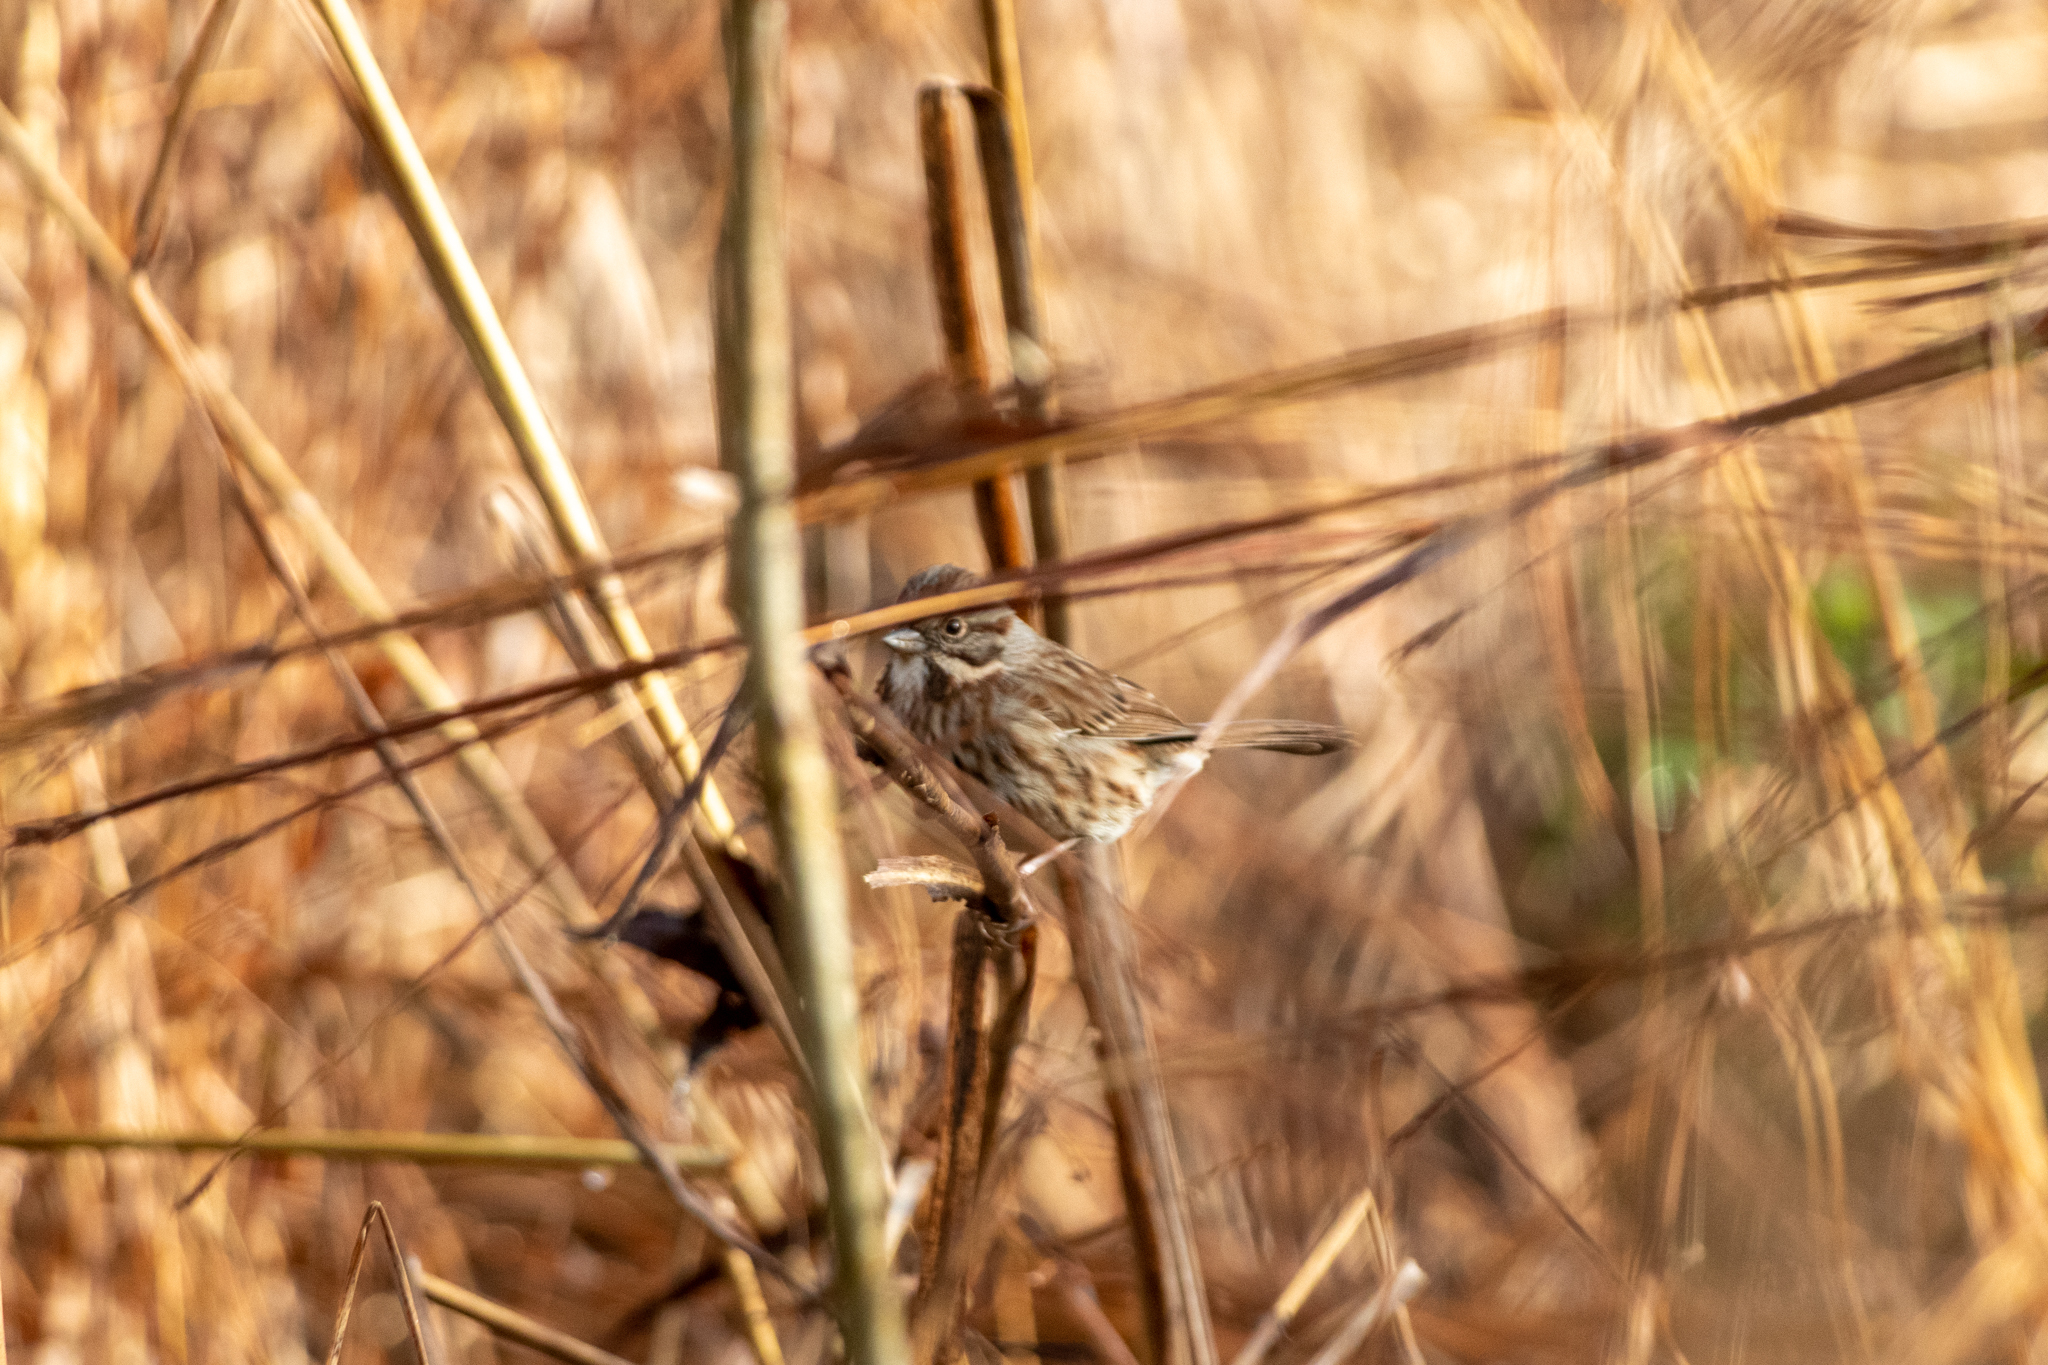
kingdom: Animalia
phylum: Chordata
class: Aves
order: Passeriformes
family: Passerellidae
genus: Melospiza
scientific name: Melospiza melodia
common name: Song sparrow
